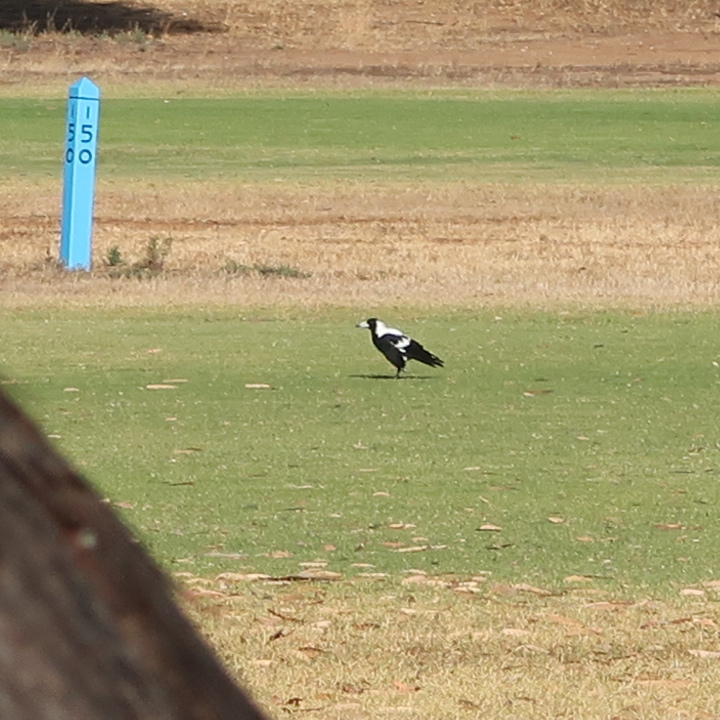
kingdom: Animalia
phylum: Chordata
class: Aves
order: Passeriformes
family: Cracticidae
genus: Gymnorhina
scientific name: Gymnorhina tibicen
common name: Australian magpie
